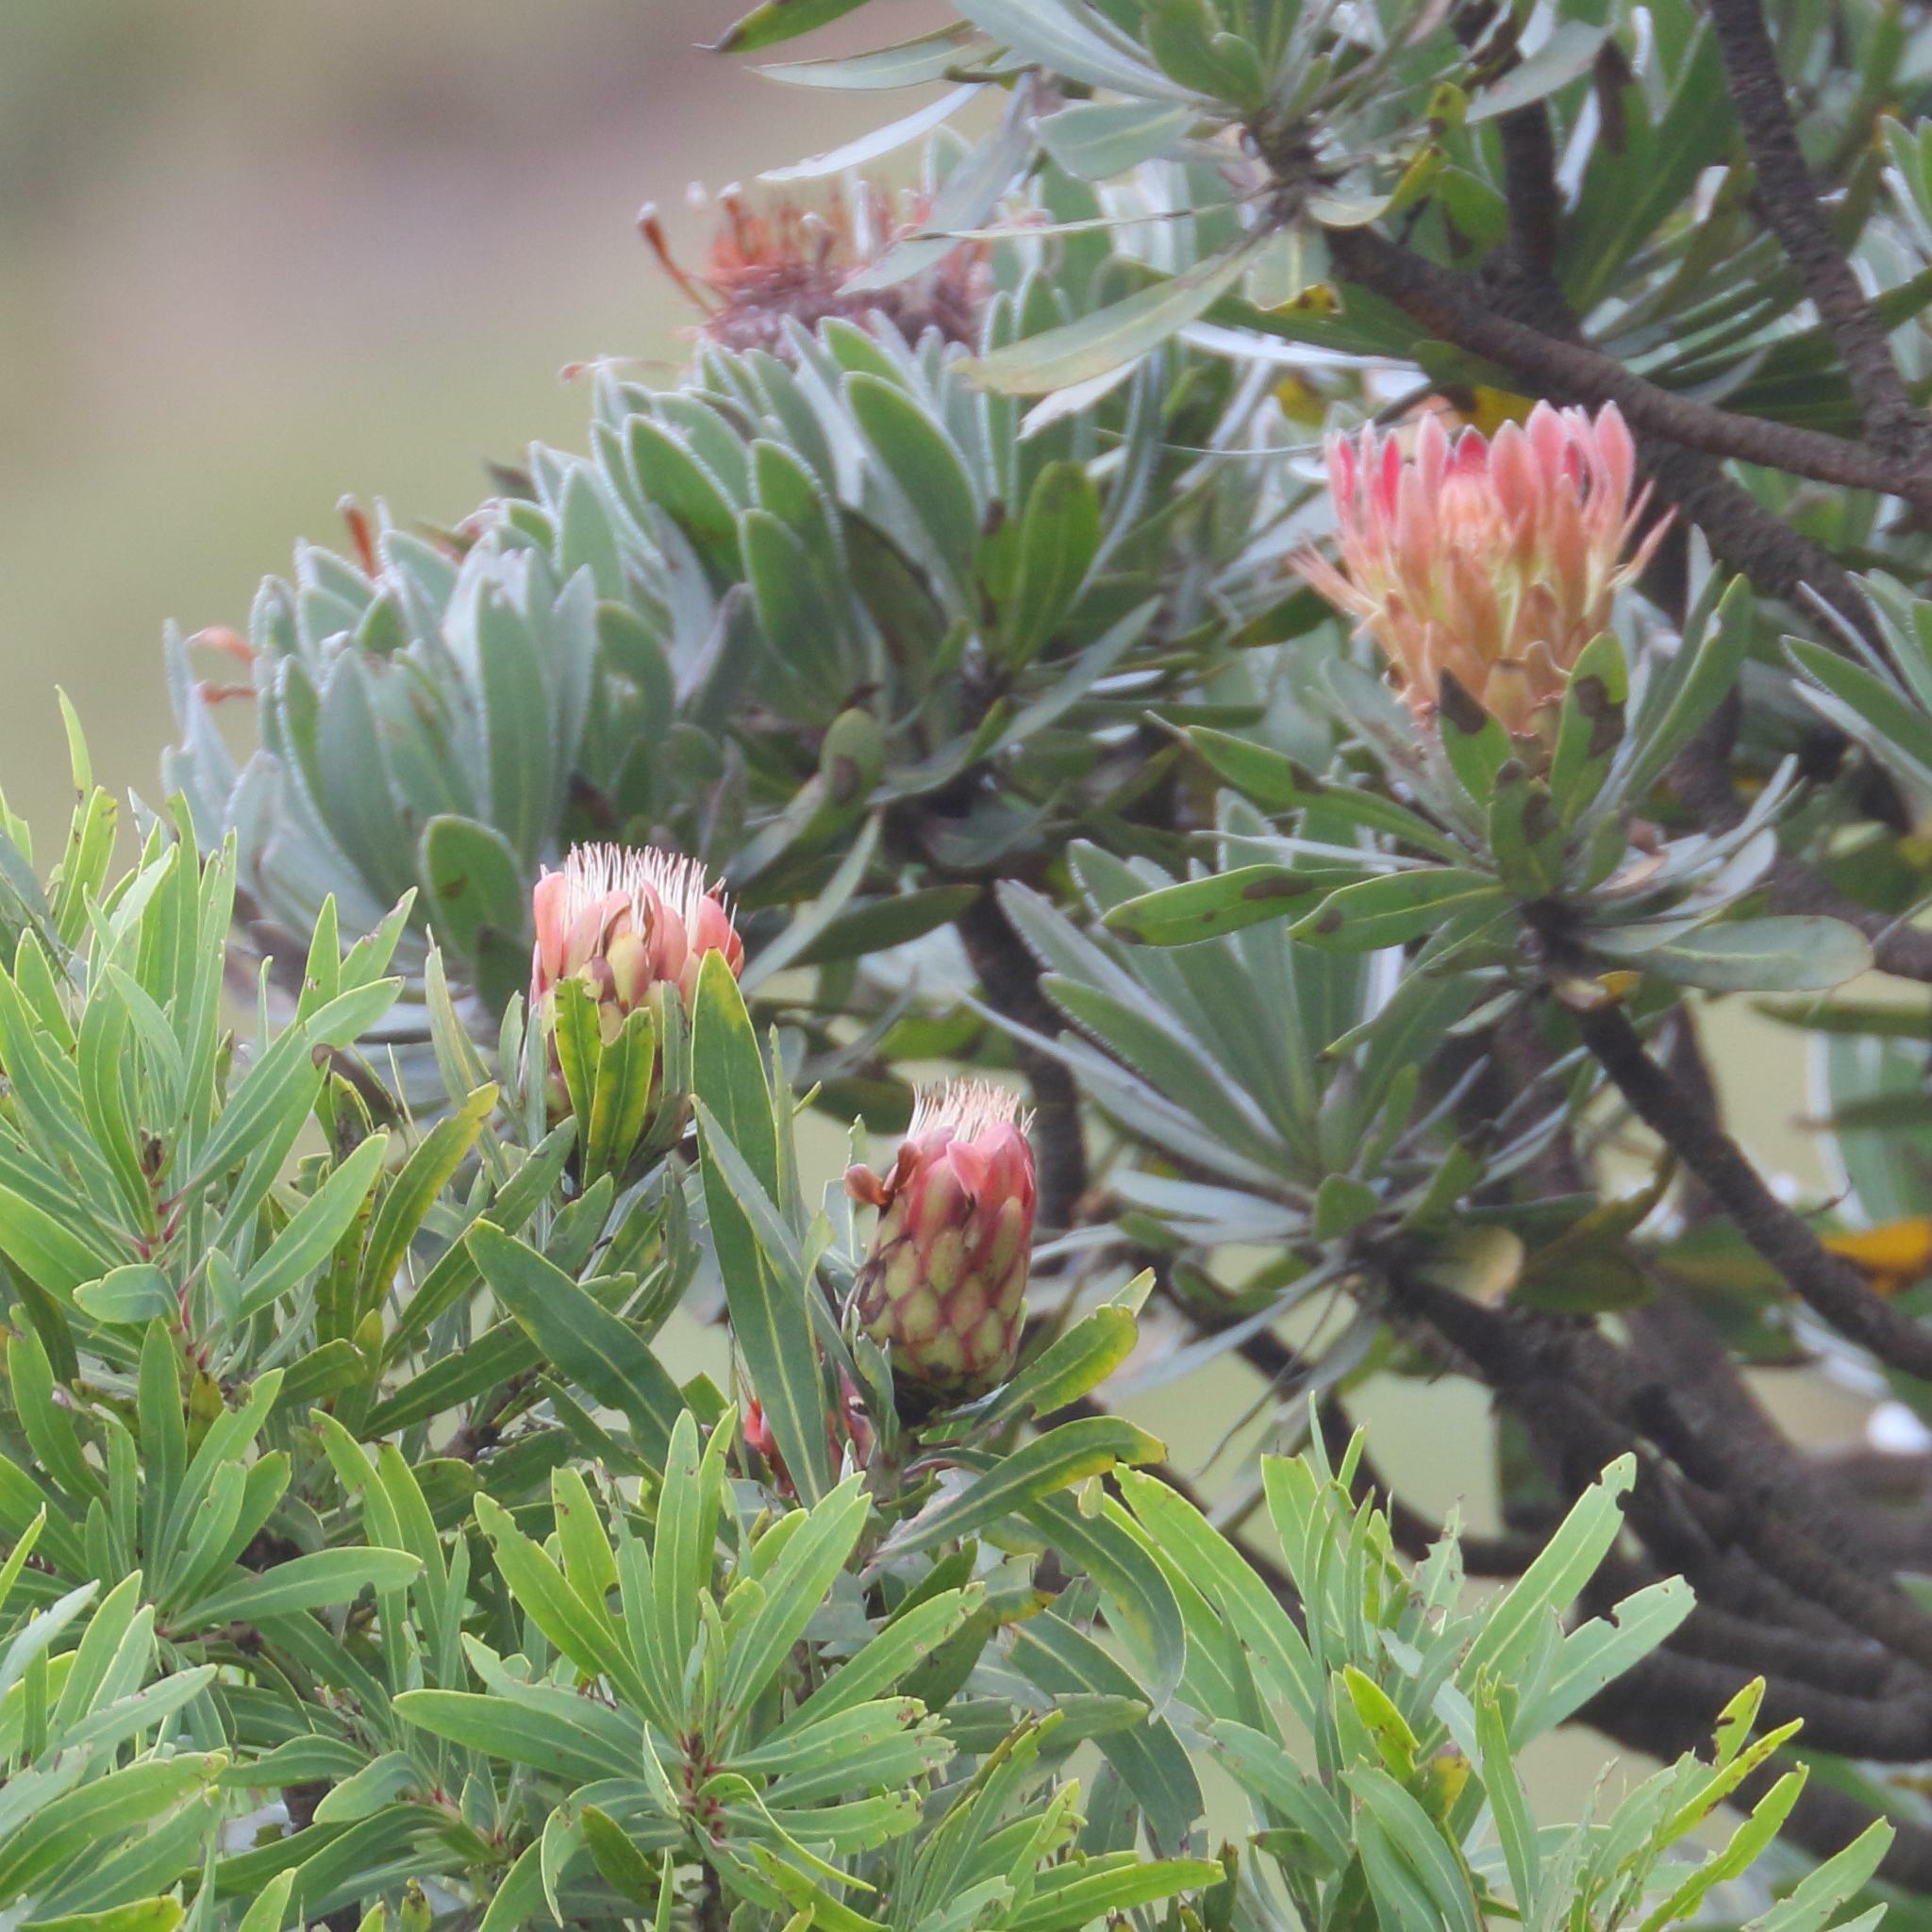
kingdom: Plantae
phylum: Tracheophyta
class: Magnoliopsida
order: Proteales
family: Proteaceae
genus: Protea
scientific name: Protea caffra
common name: Common sugarbush
